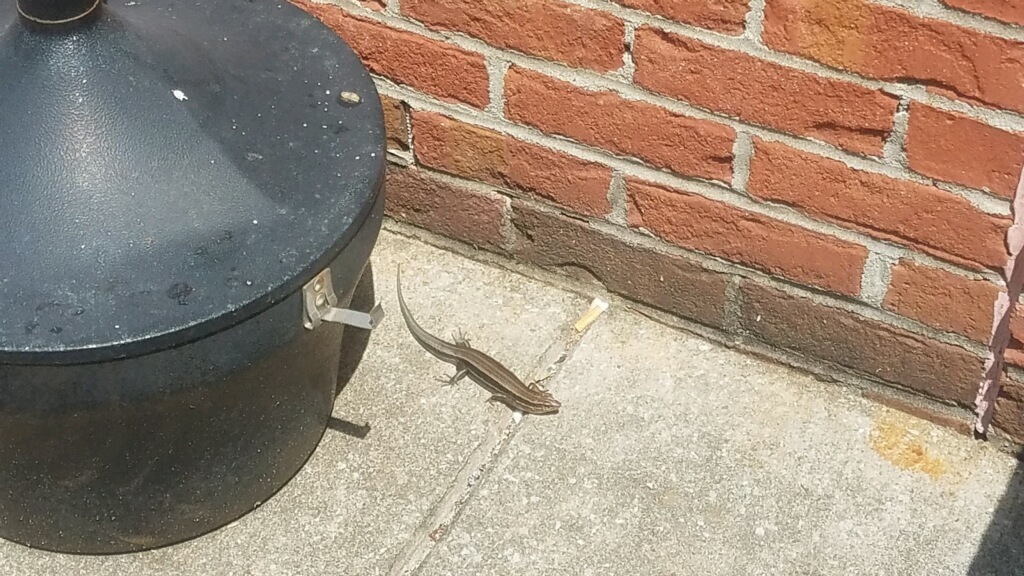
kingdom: Animalia
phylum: Chordata
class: Squamata
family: Scincidae
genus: Plestiodon
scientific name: Plestiodon laticeps
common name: Broadhead skink
